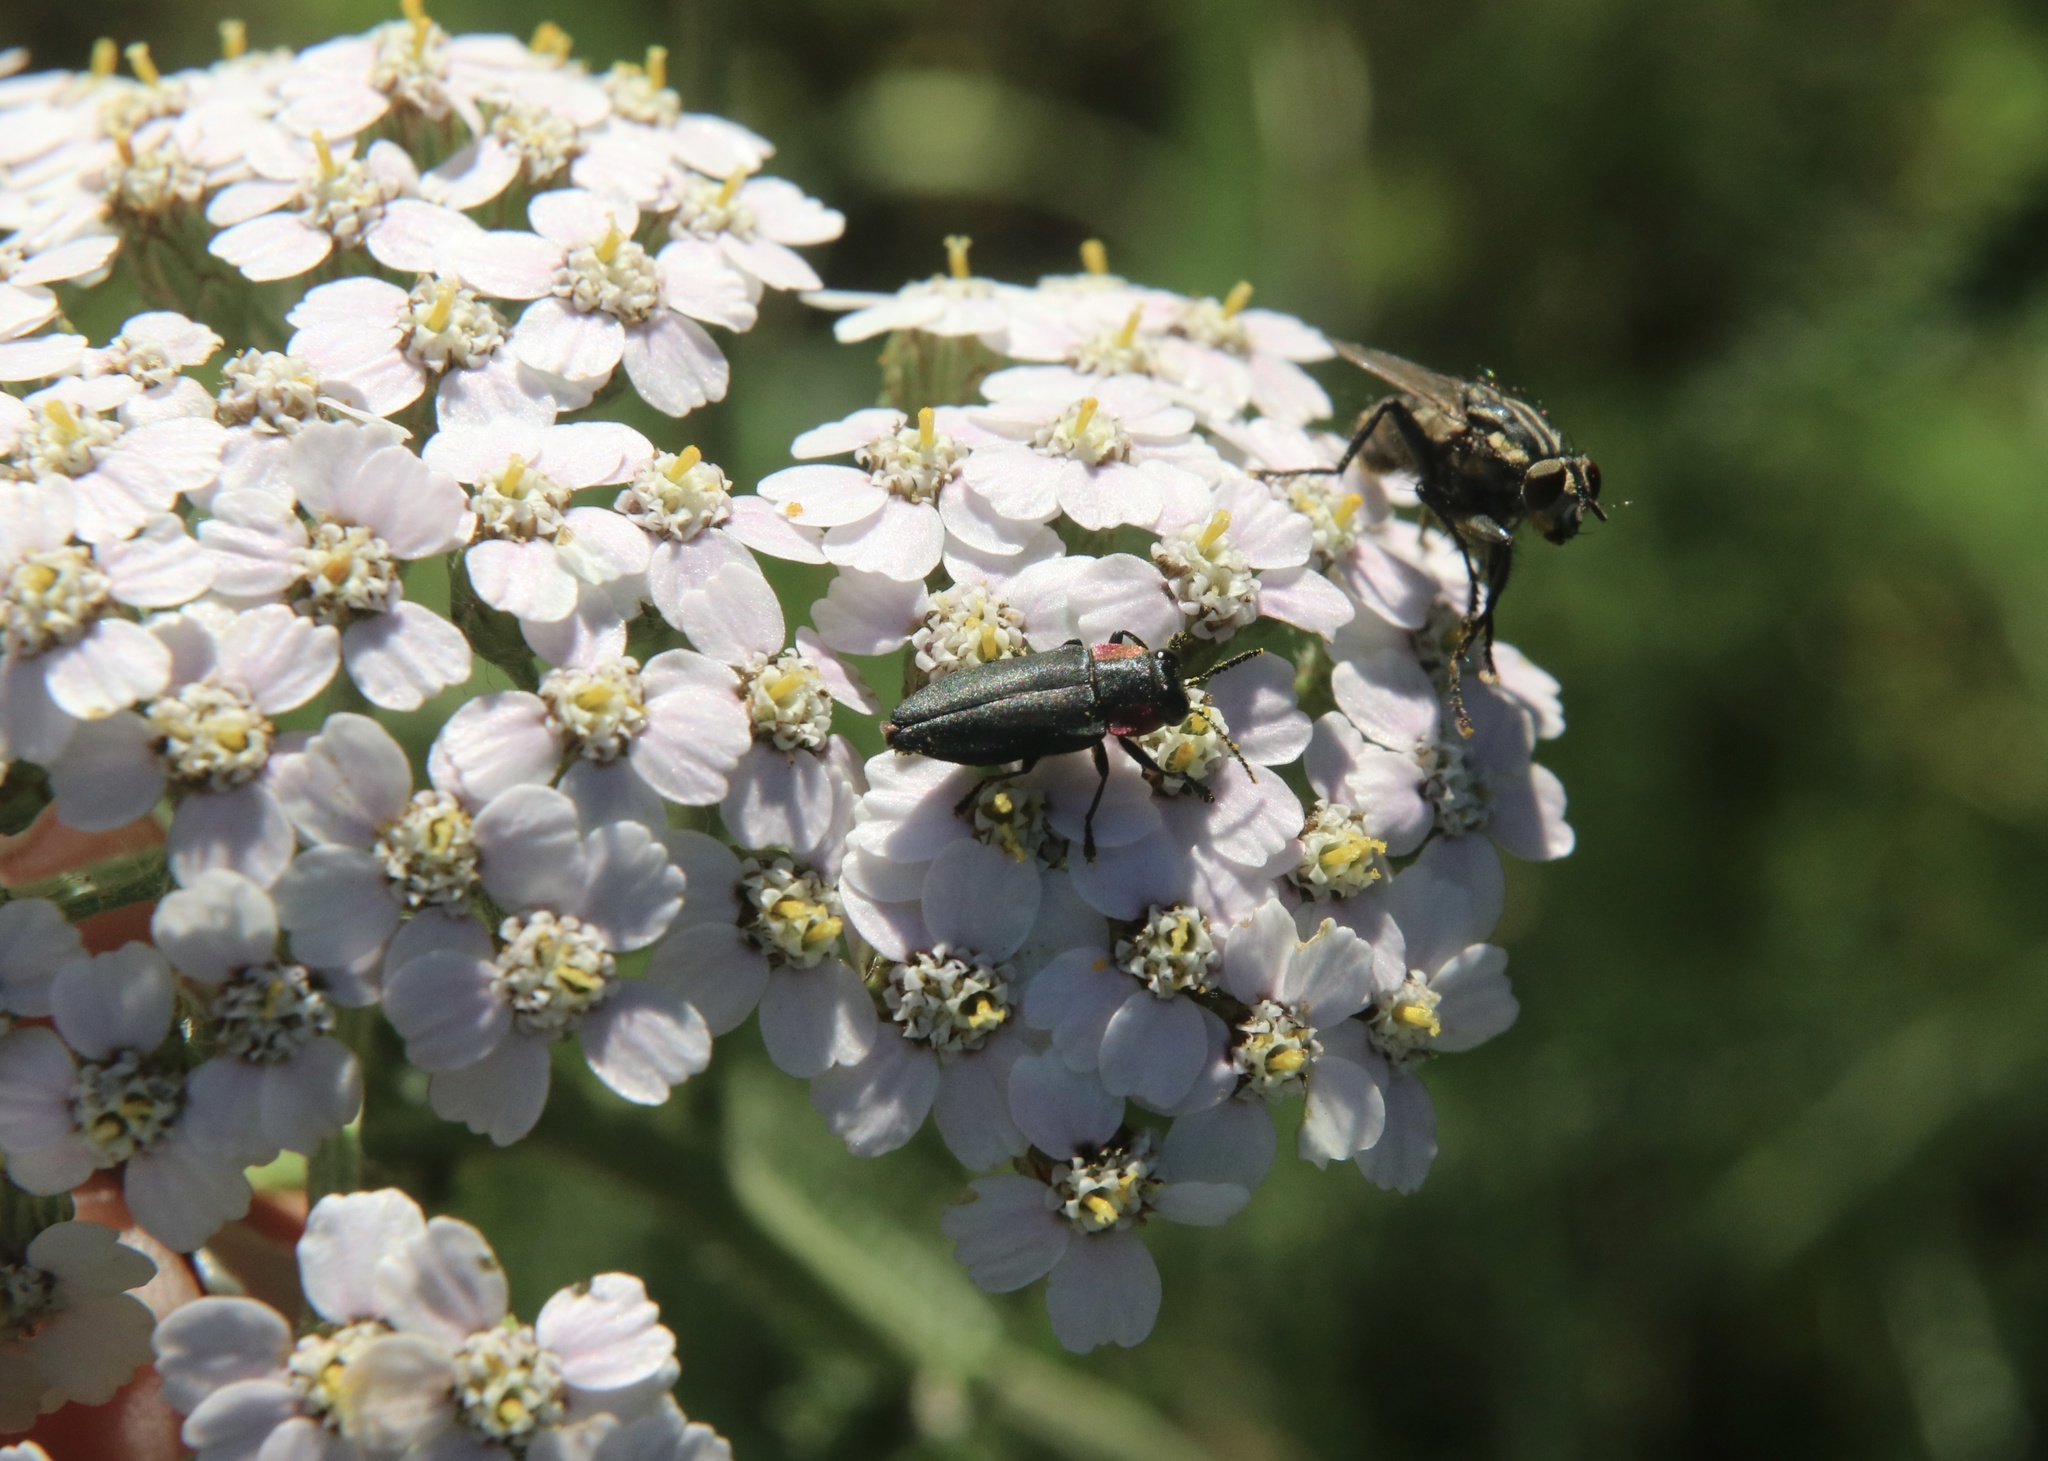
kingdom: Animalia
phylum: Arthropoda
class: Insecta
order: Coleoptera
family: Buprestidae
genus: Romanophora
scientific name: Romanophora verecunda
